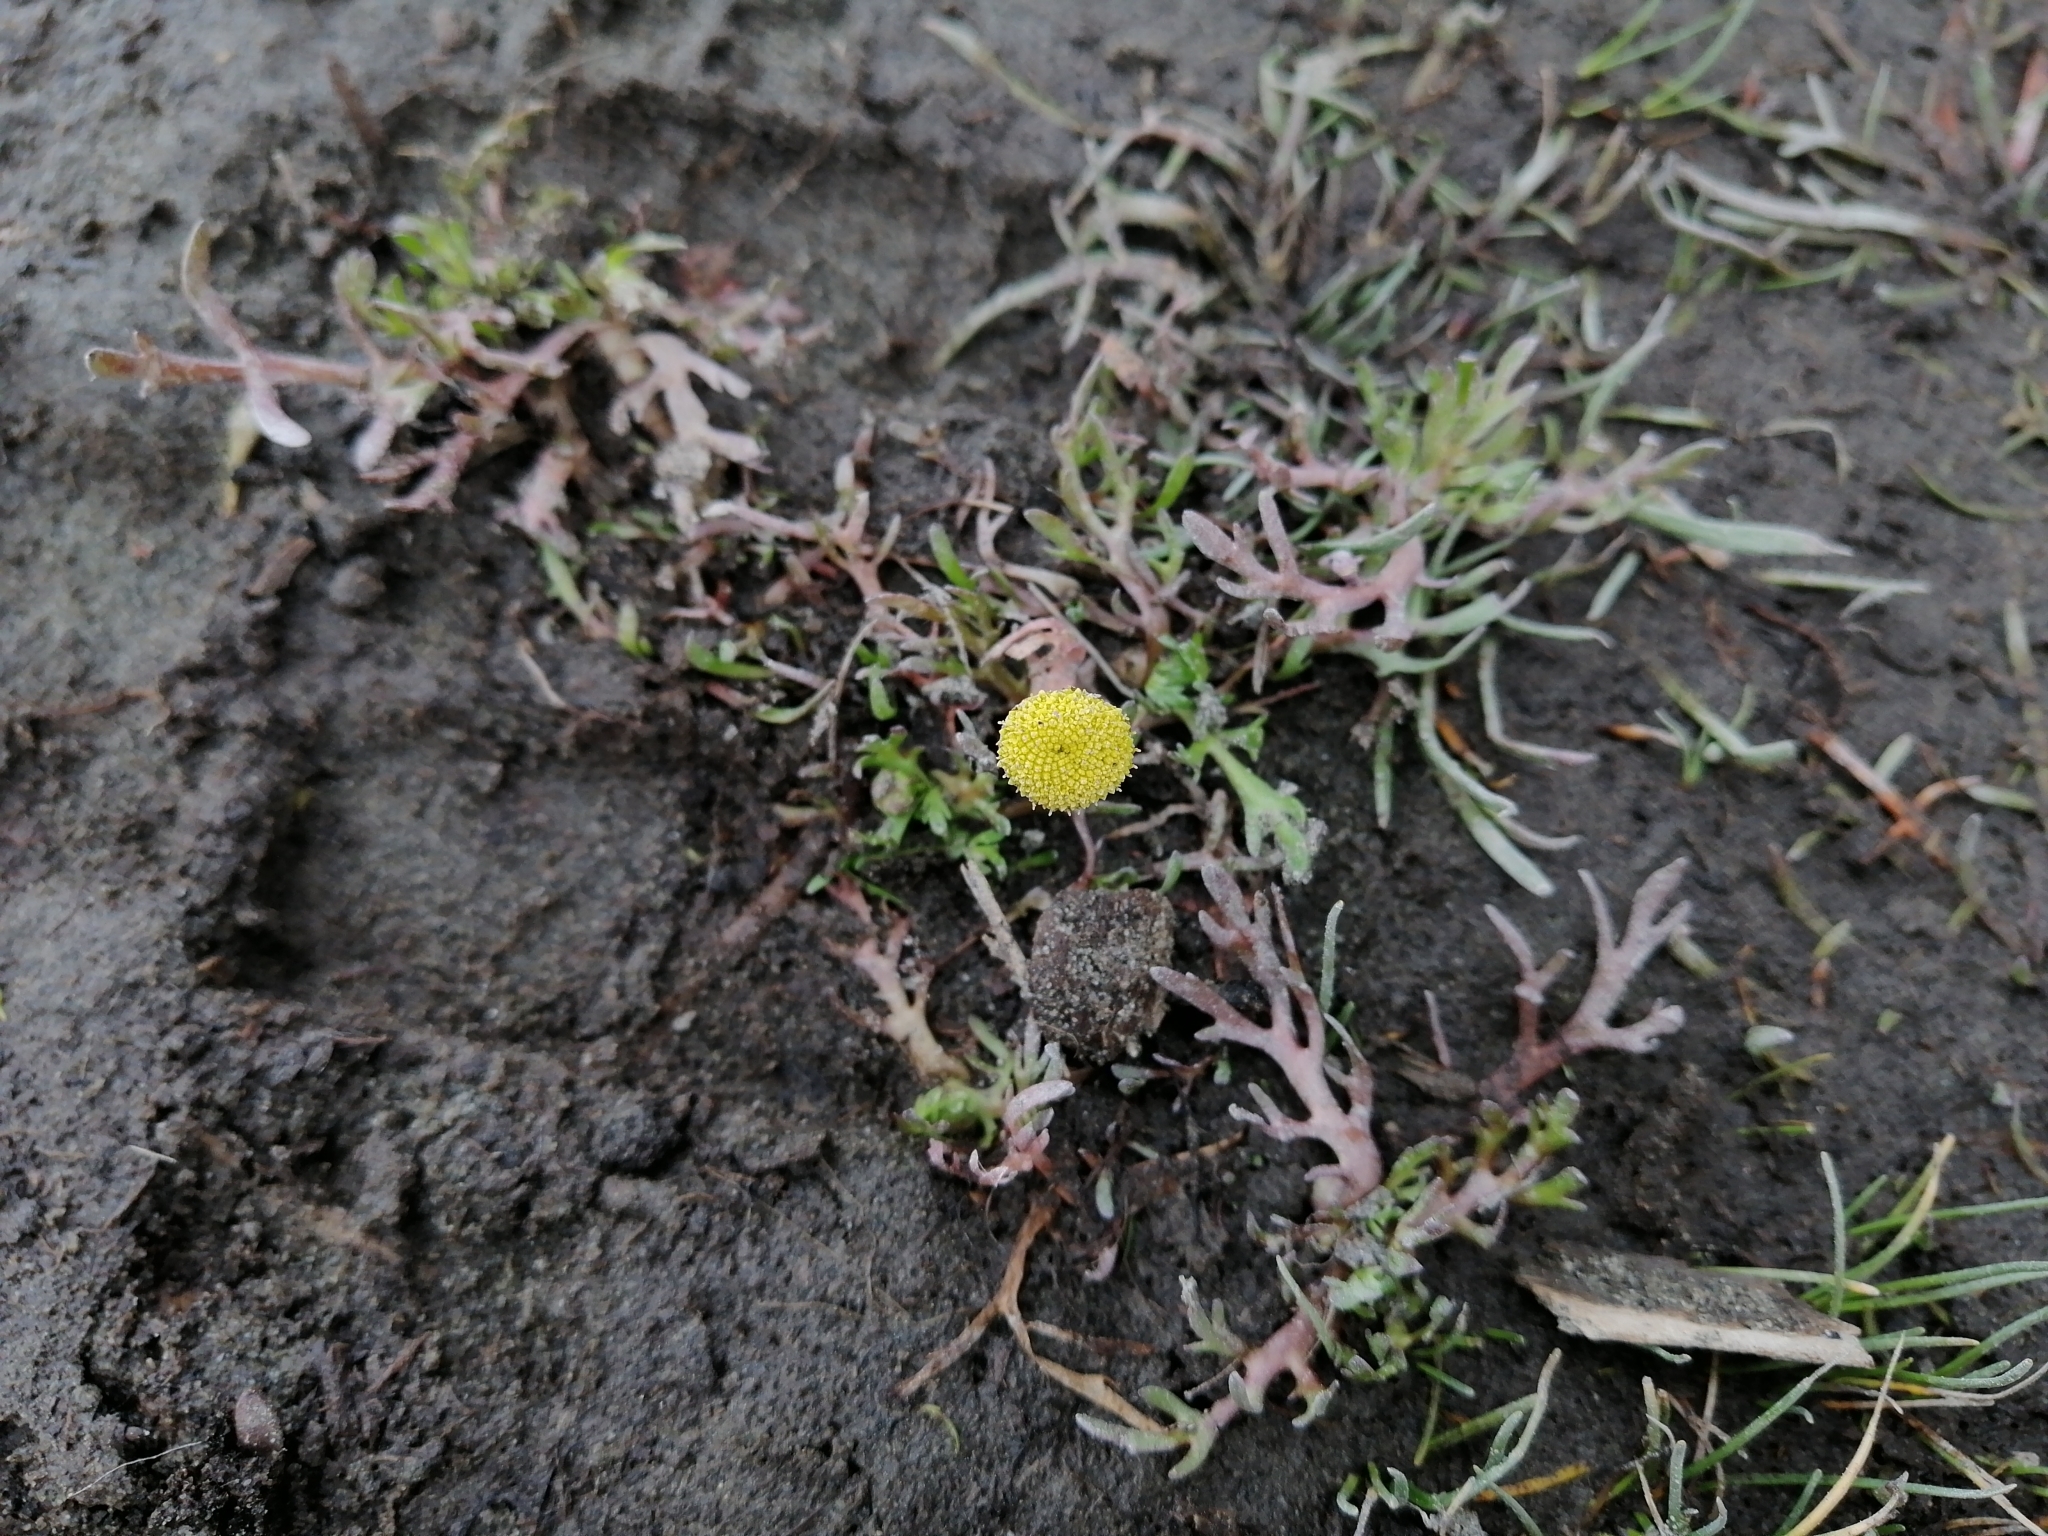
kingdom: Plantae
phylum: Tracheophyta
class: Magnoliopsida
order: Asterales
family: Asteraceae
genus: Cotula
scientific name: Cotula coronopifolia
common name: Buttonweed
